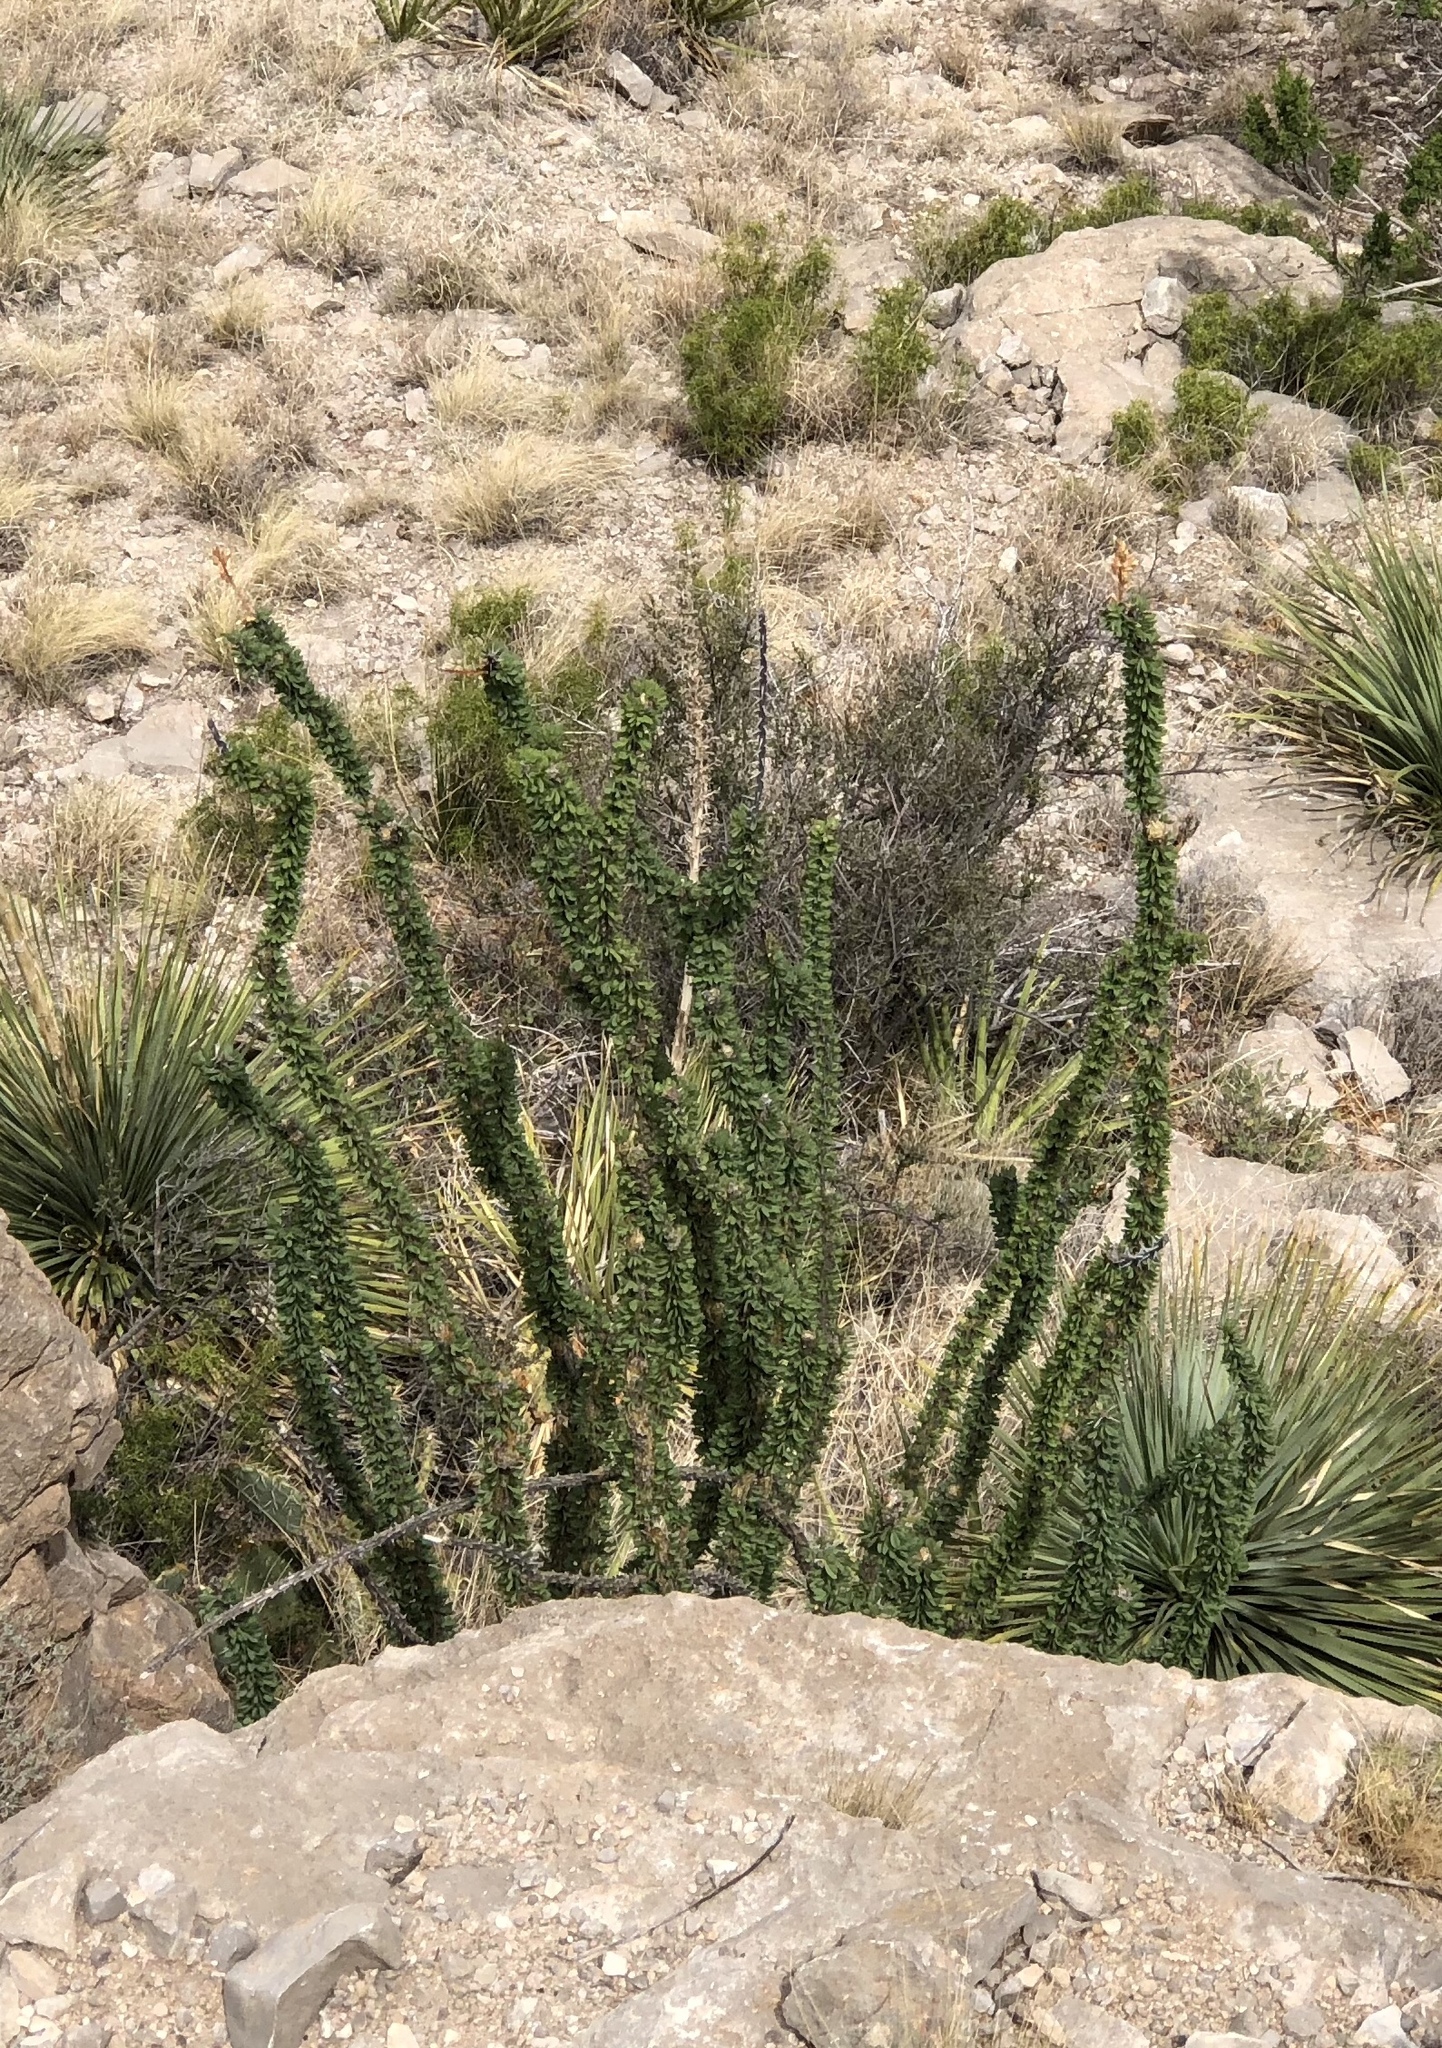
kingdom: Plantae
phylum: Tracheophyta
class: Magnoliopsida
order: Ericales
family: Fouquieriaceae
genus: Fouquieria
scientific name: Fouquieria splendens
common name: Vine-cactus
